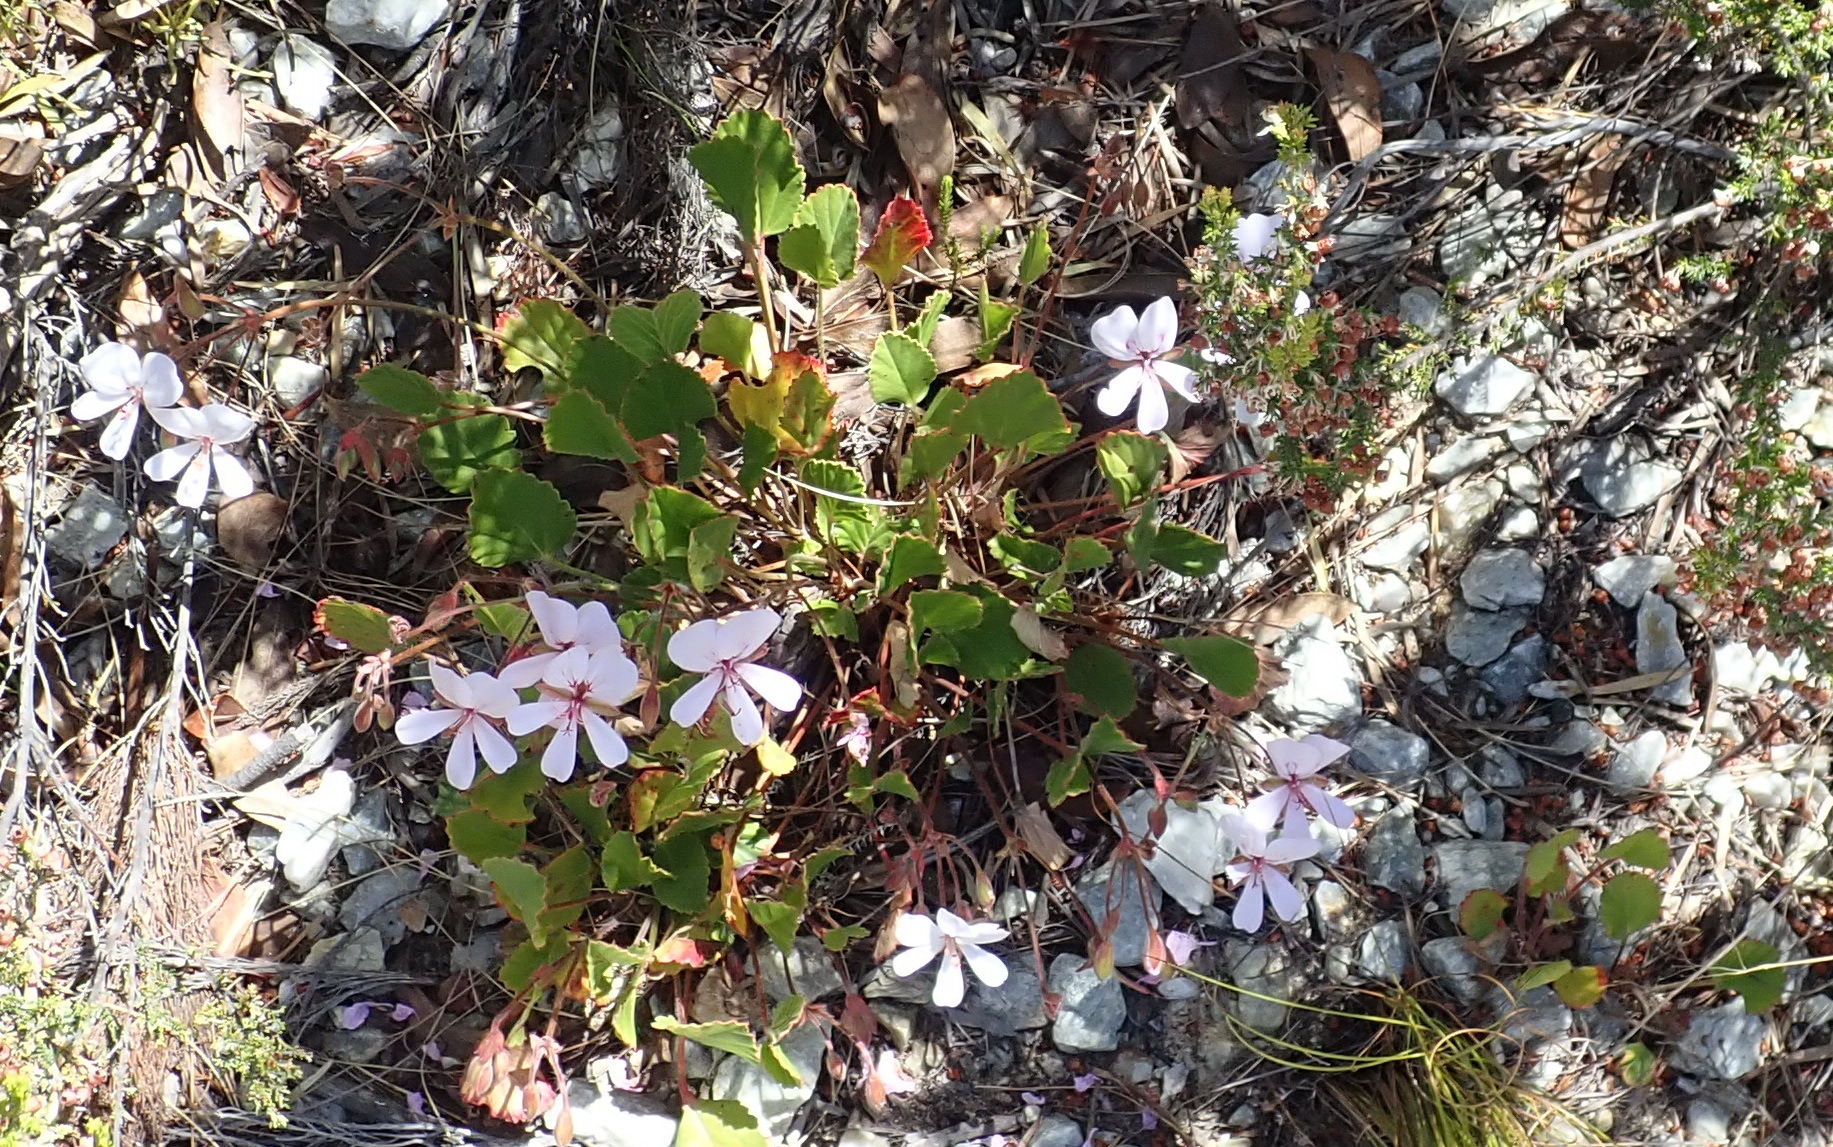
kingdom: Plantae
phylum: Tracheophyta
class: Magnoliopsida
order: Geraniales
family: Geraniaceae
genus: Pelargonium
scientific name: Pelargonium ovale
